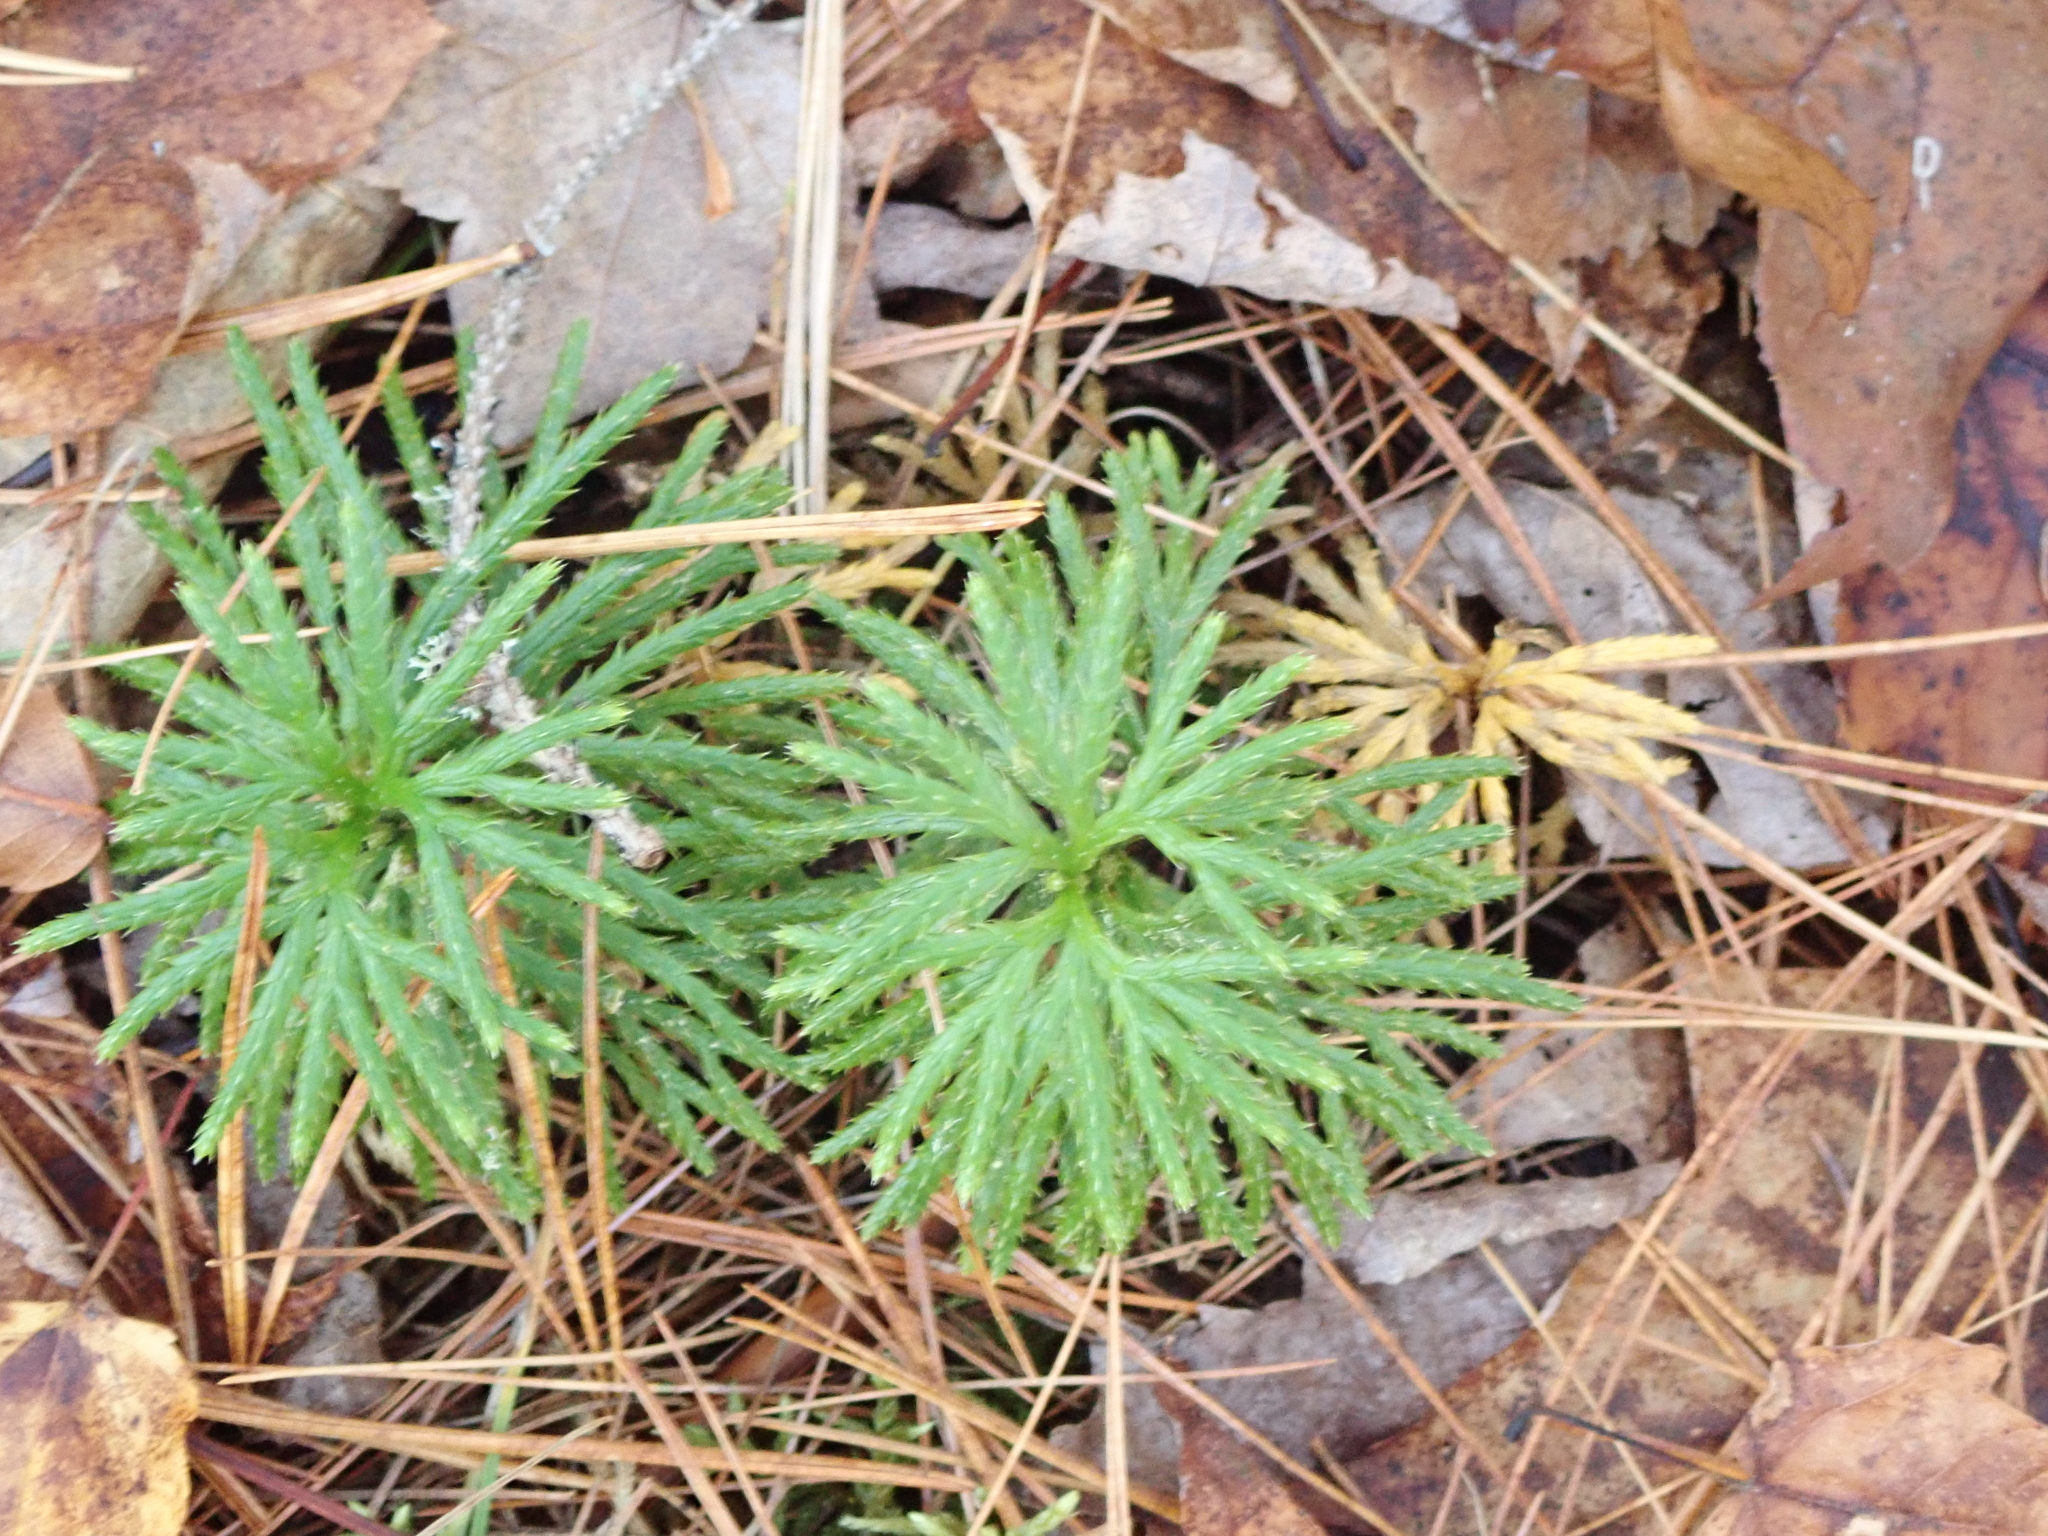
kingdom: Plantae
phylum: Tracheophyta
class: Lycopodiopsida
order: Lycopodiales
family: Lycopodiaceae
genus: Diphasiastrum
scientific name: Diphasiastrum digitatum
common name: Southern running-pine
